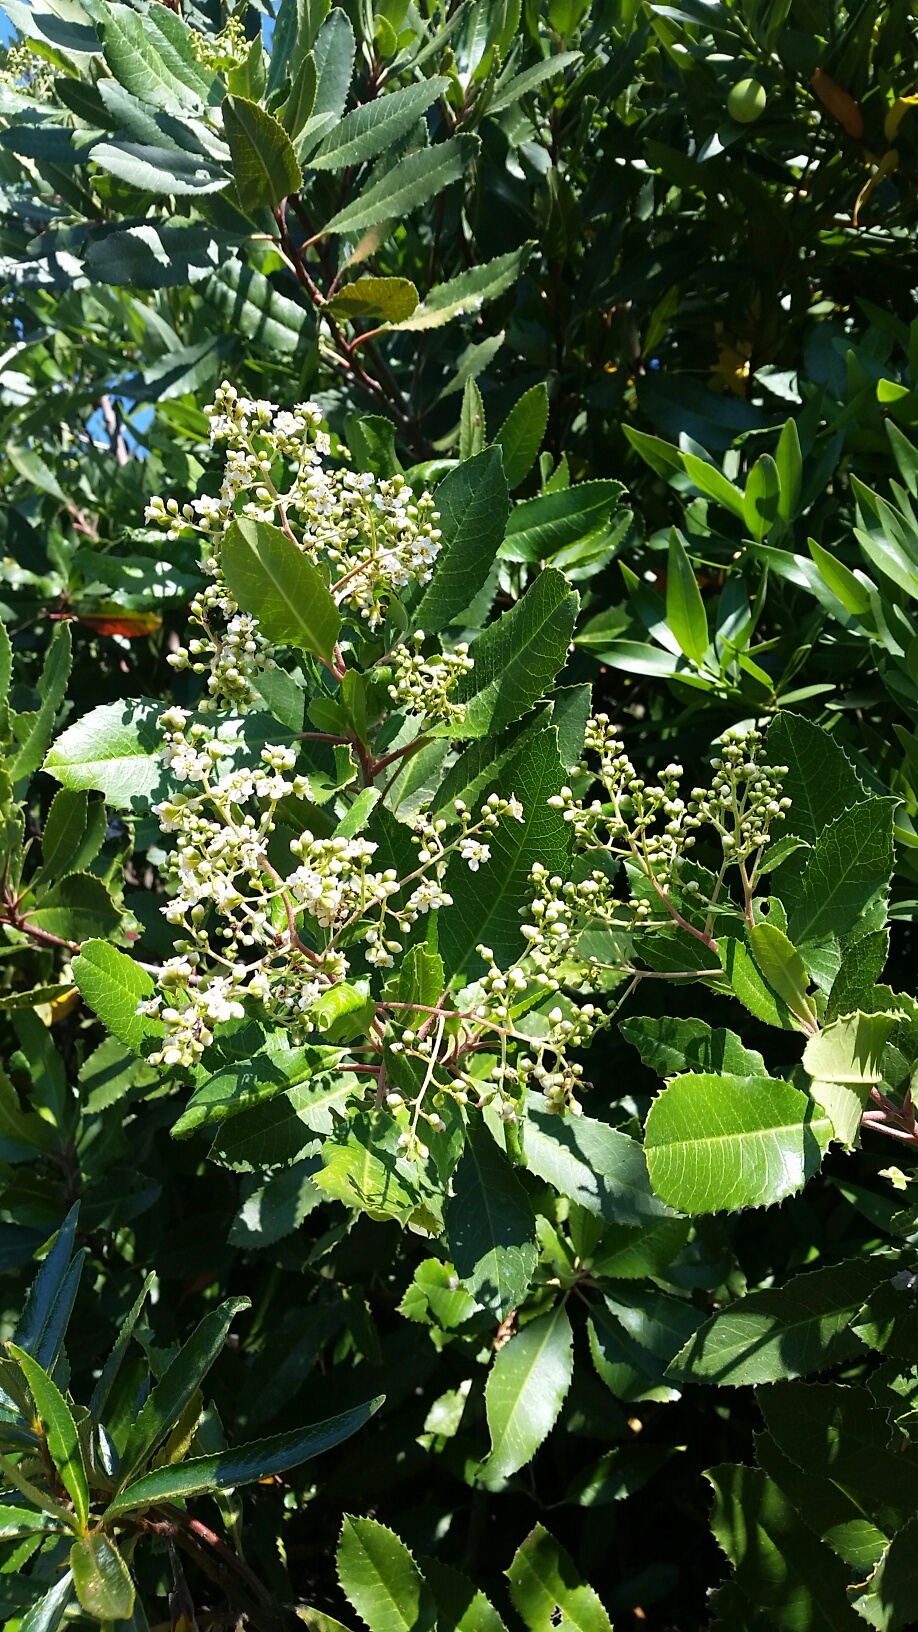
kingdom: Plantae
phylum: Tracheophyta
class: Magnoliopsida
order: Rosales
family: Rosaceae
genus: Heteromeles
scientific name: Heteromeles arbutifolia
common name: California-holly
